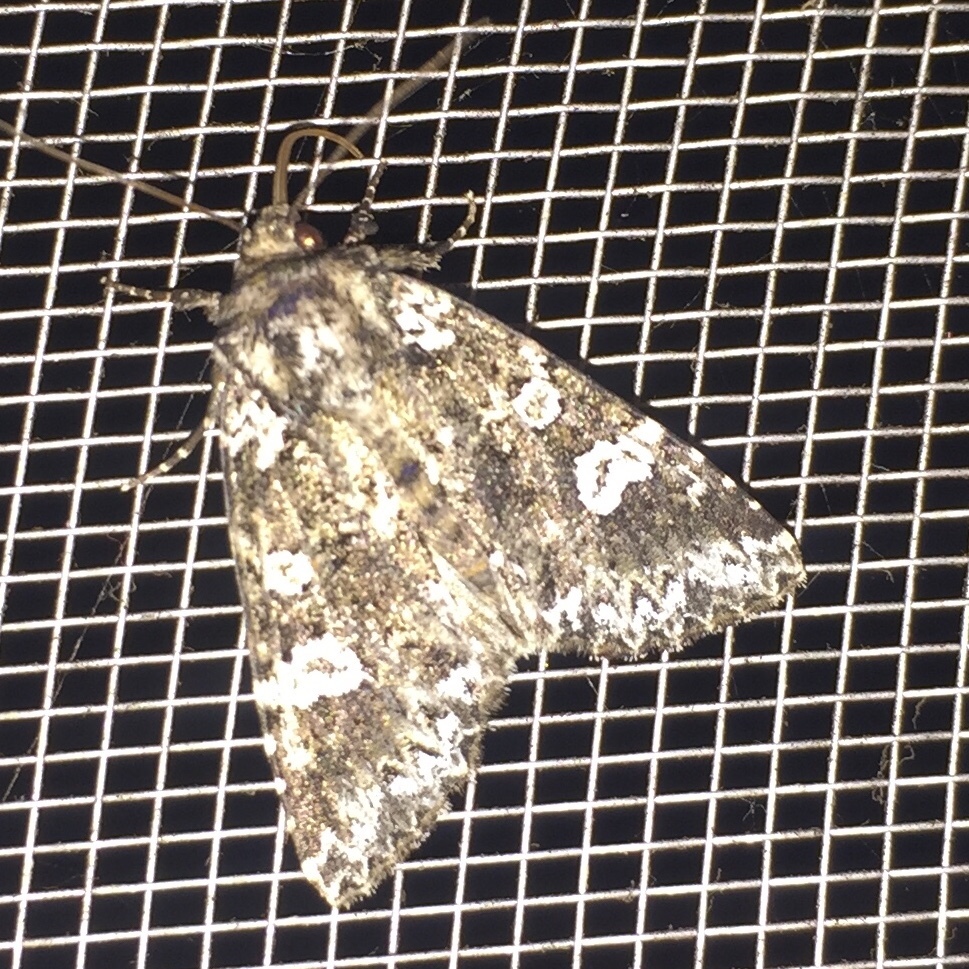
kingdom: Animalia
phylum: Arthropoda
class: Insecta
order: Lepidoptera
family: Noctuidae
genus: Melanchra
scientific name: Melanchra adjuncta
